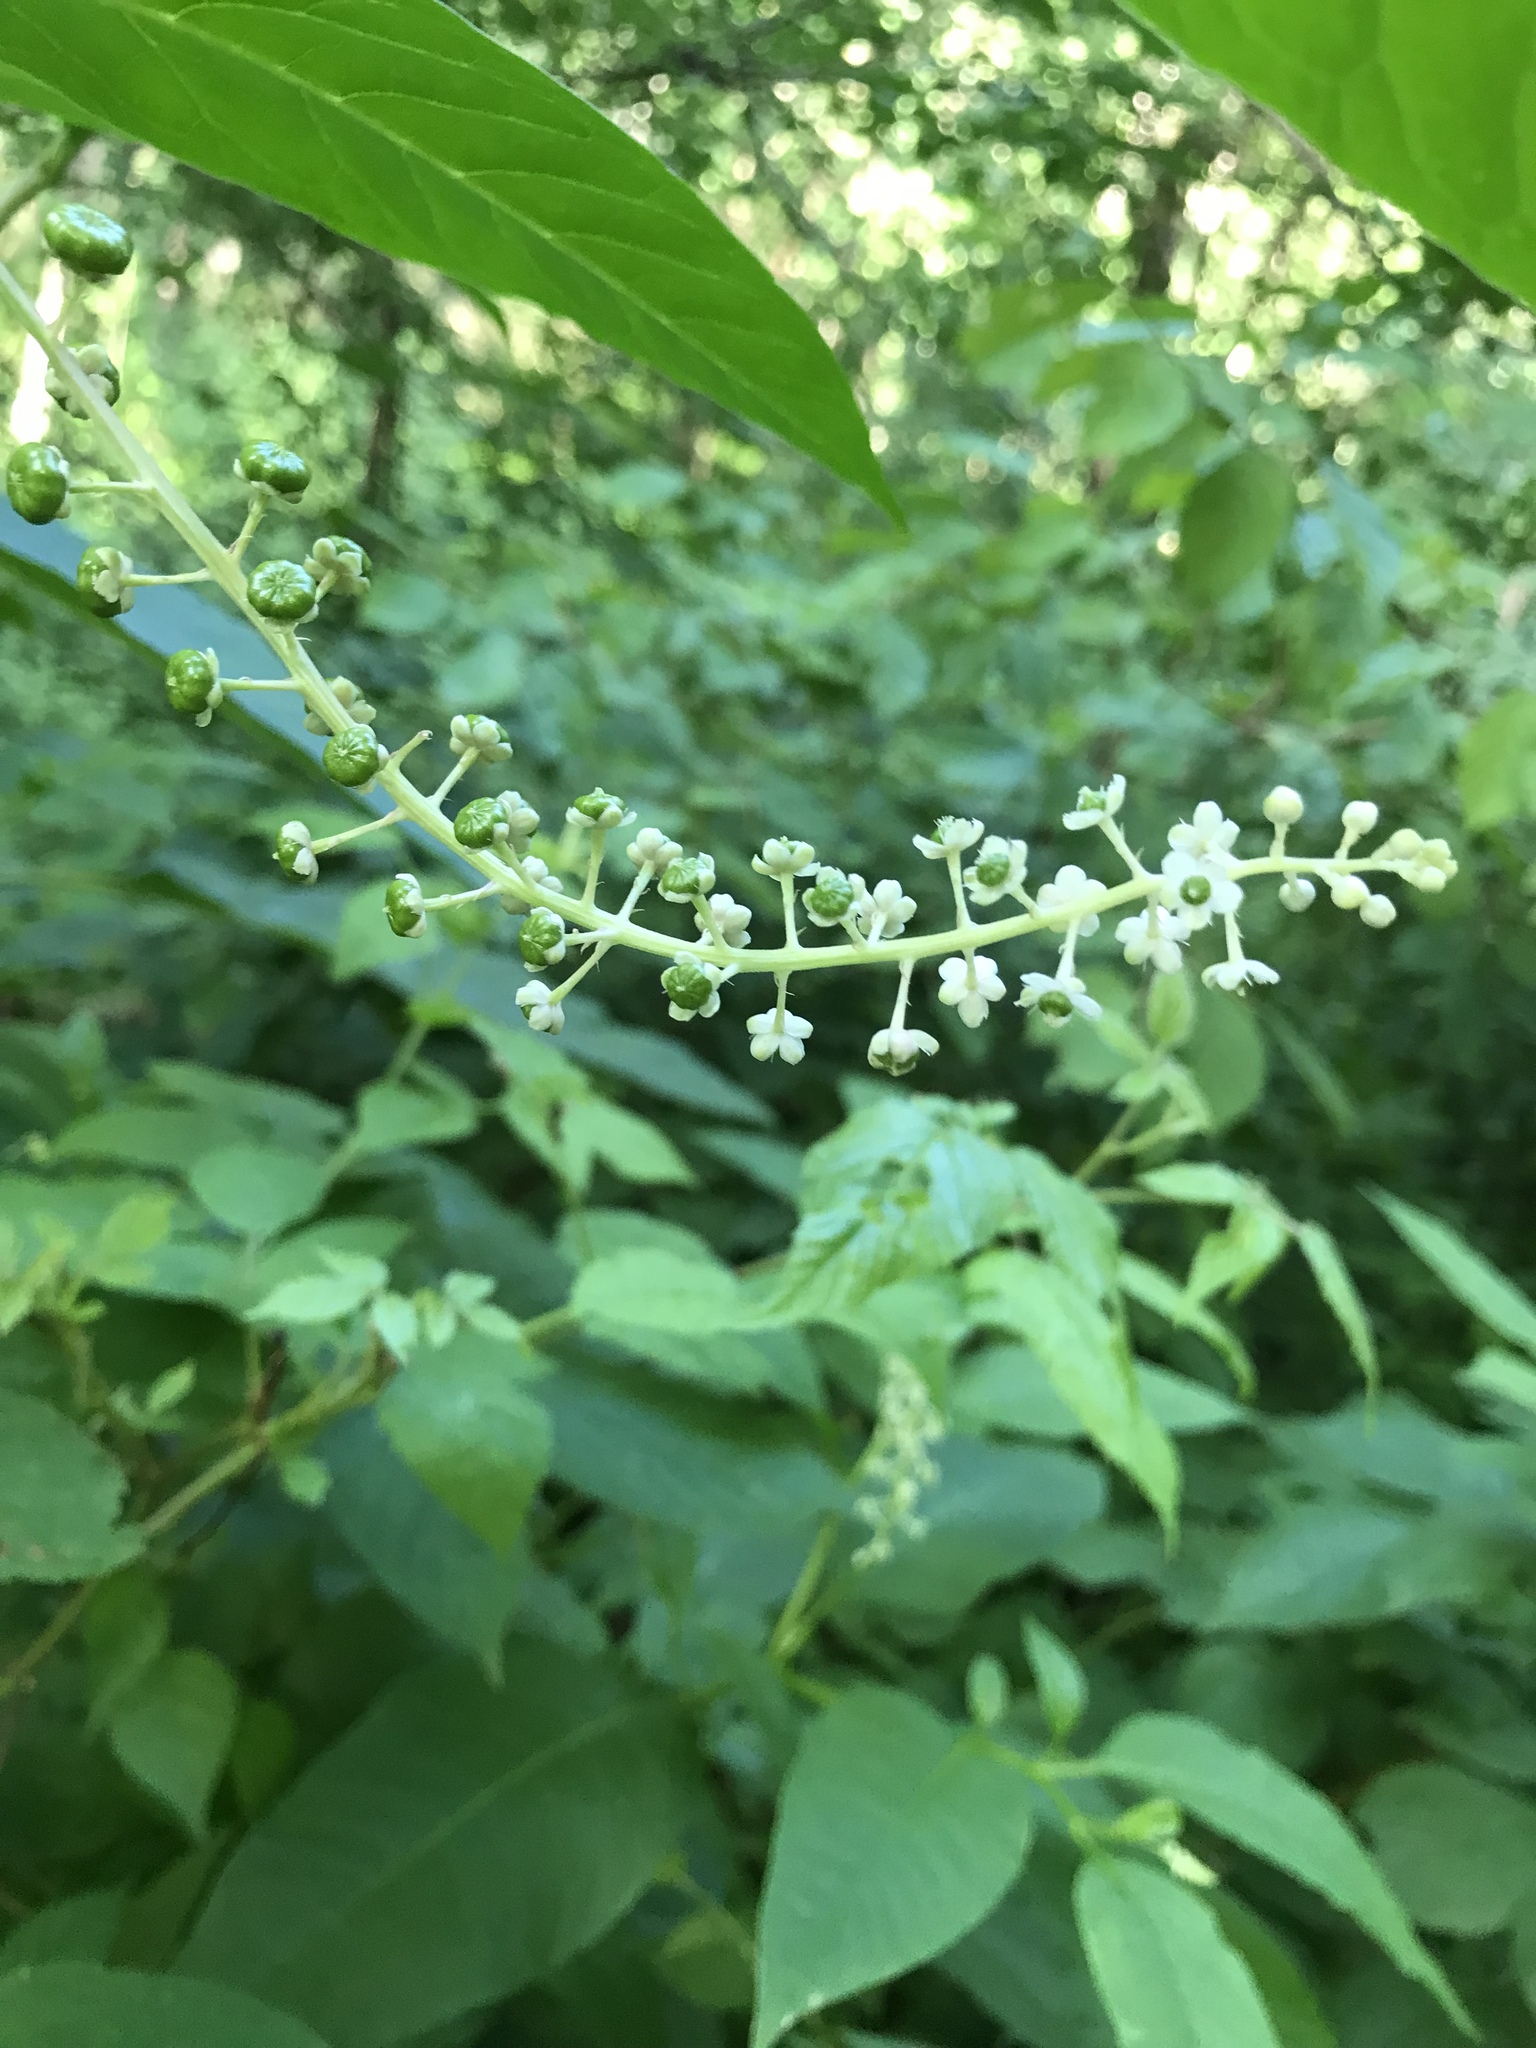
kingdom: Plantae
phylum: Tracheophyta
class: Magnoliopsida
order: Caryophyllales
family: Phytolaccaceae
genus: Phytolacca
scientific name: Phytolacca americana
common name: American pokeweed
